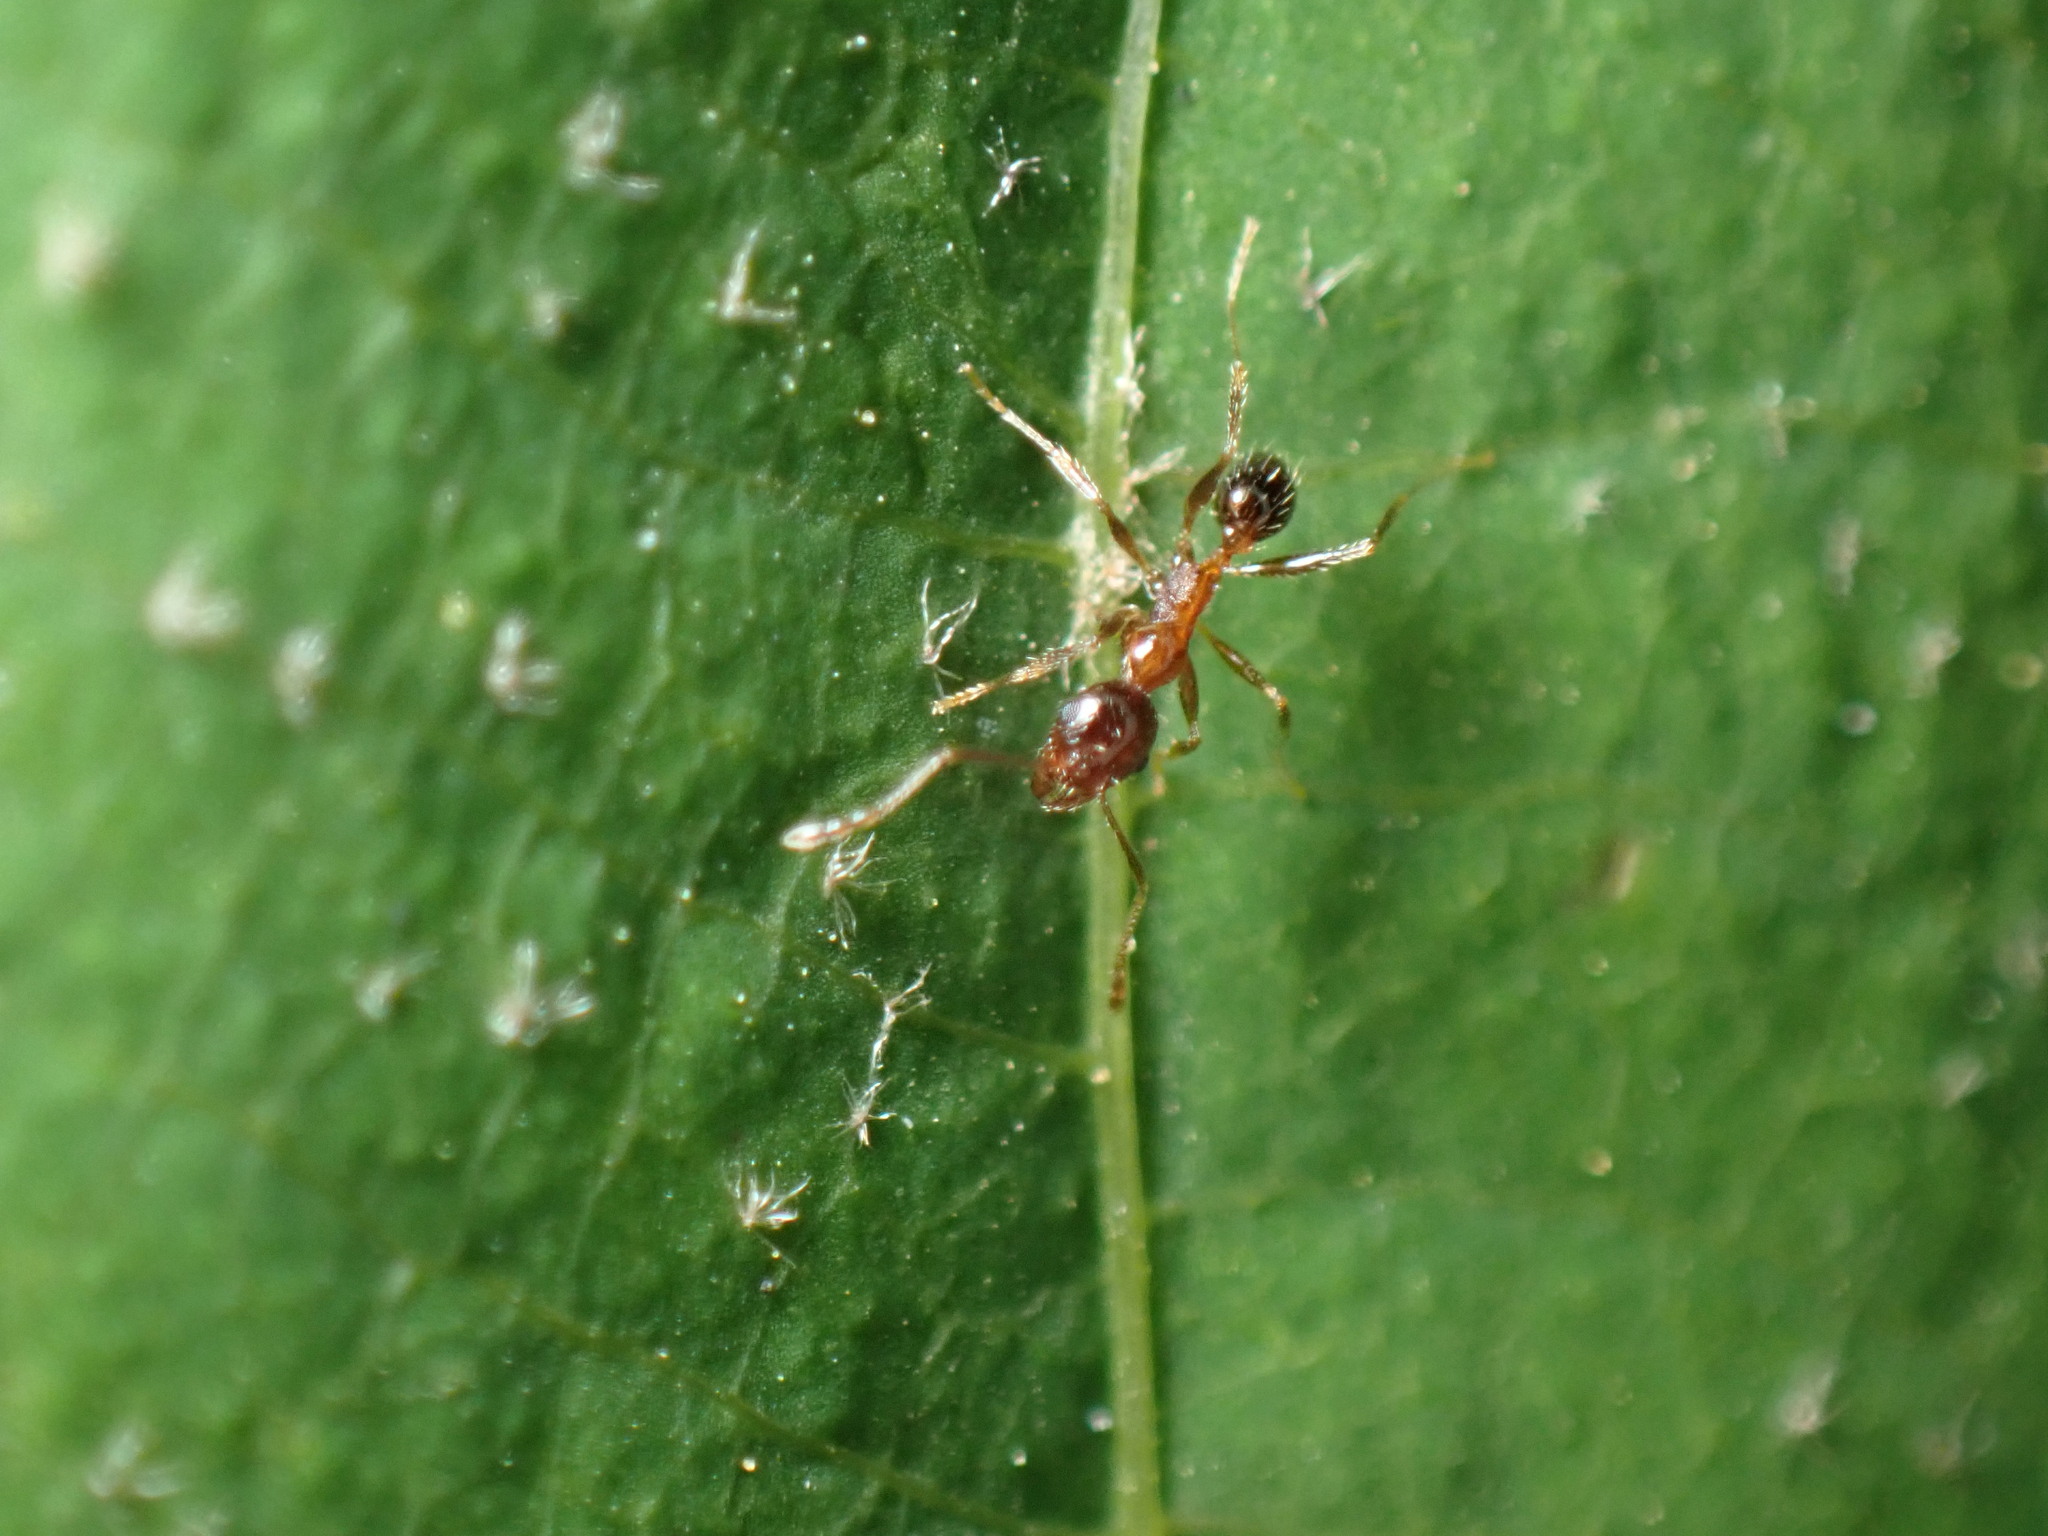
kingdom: Animalia
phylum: Arthropoda
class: Insecta
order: Hymenoptera
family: Formicidae
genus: Pheidole
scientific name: Pheidole noda
